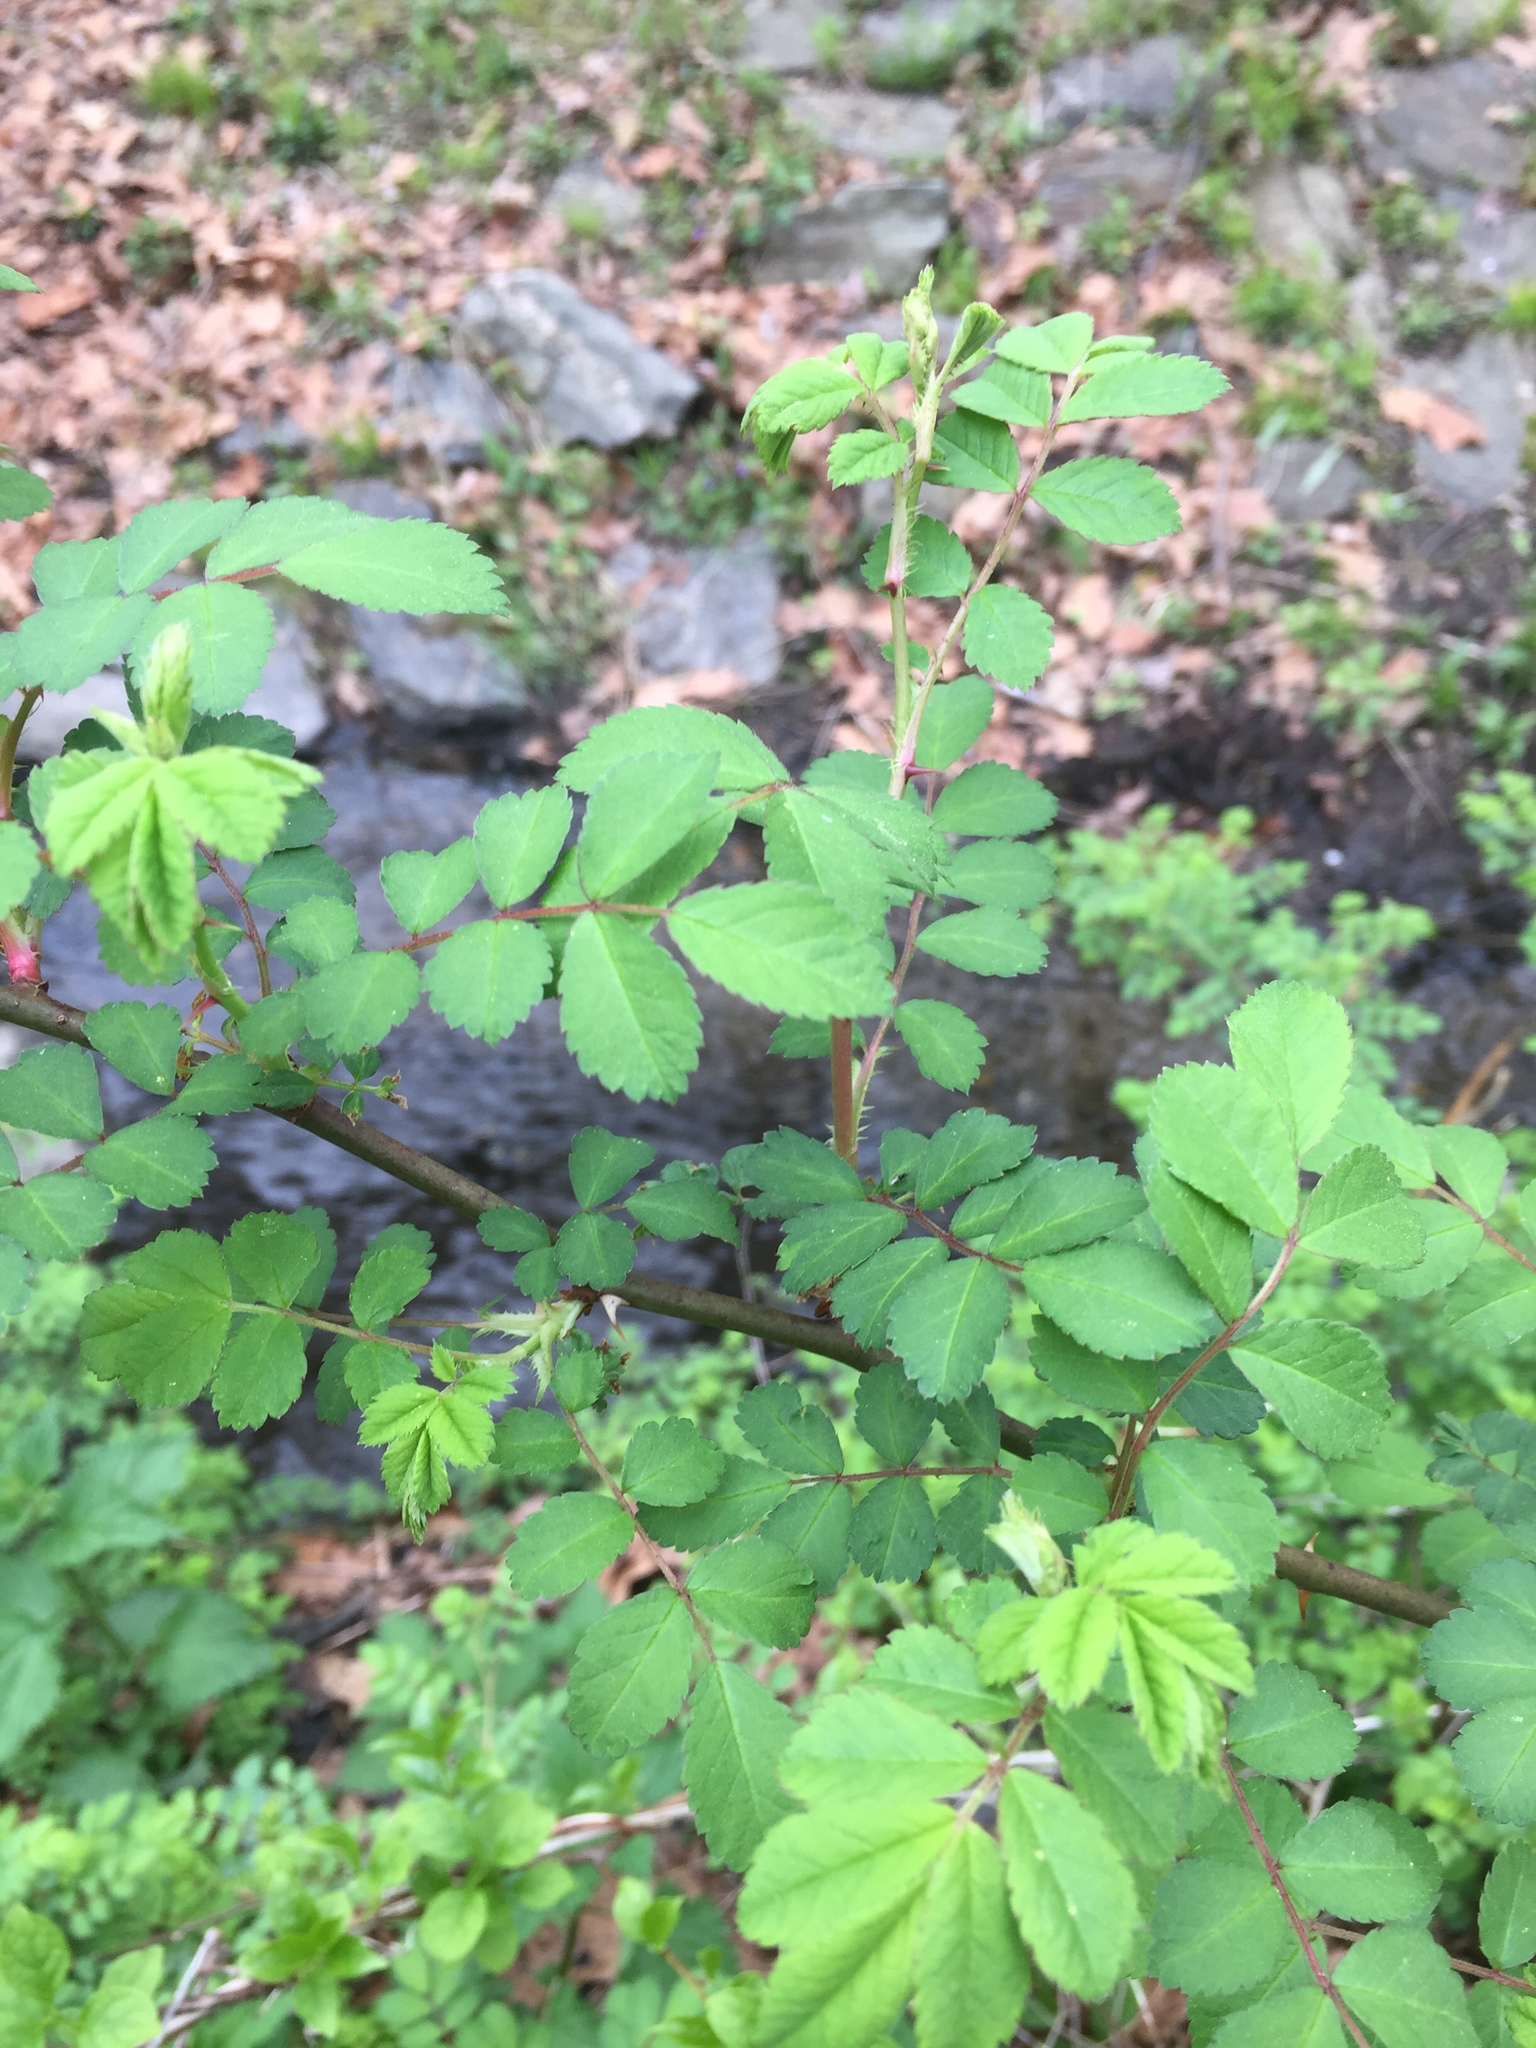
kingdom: Plantae
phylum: Tracheophyta
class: Magnoliopsida
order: Rosales
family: Rosaceae
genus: Rosa
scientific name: Rosa multiflora
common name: Multiflora rose
